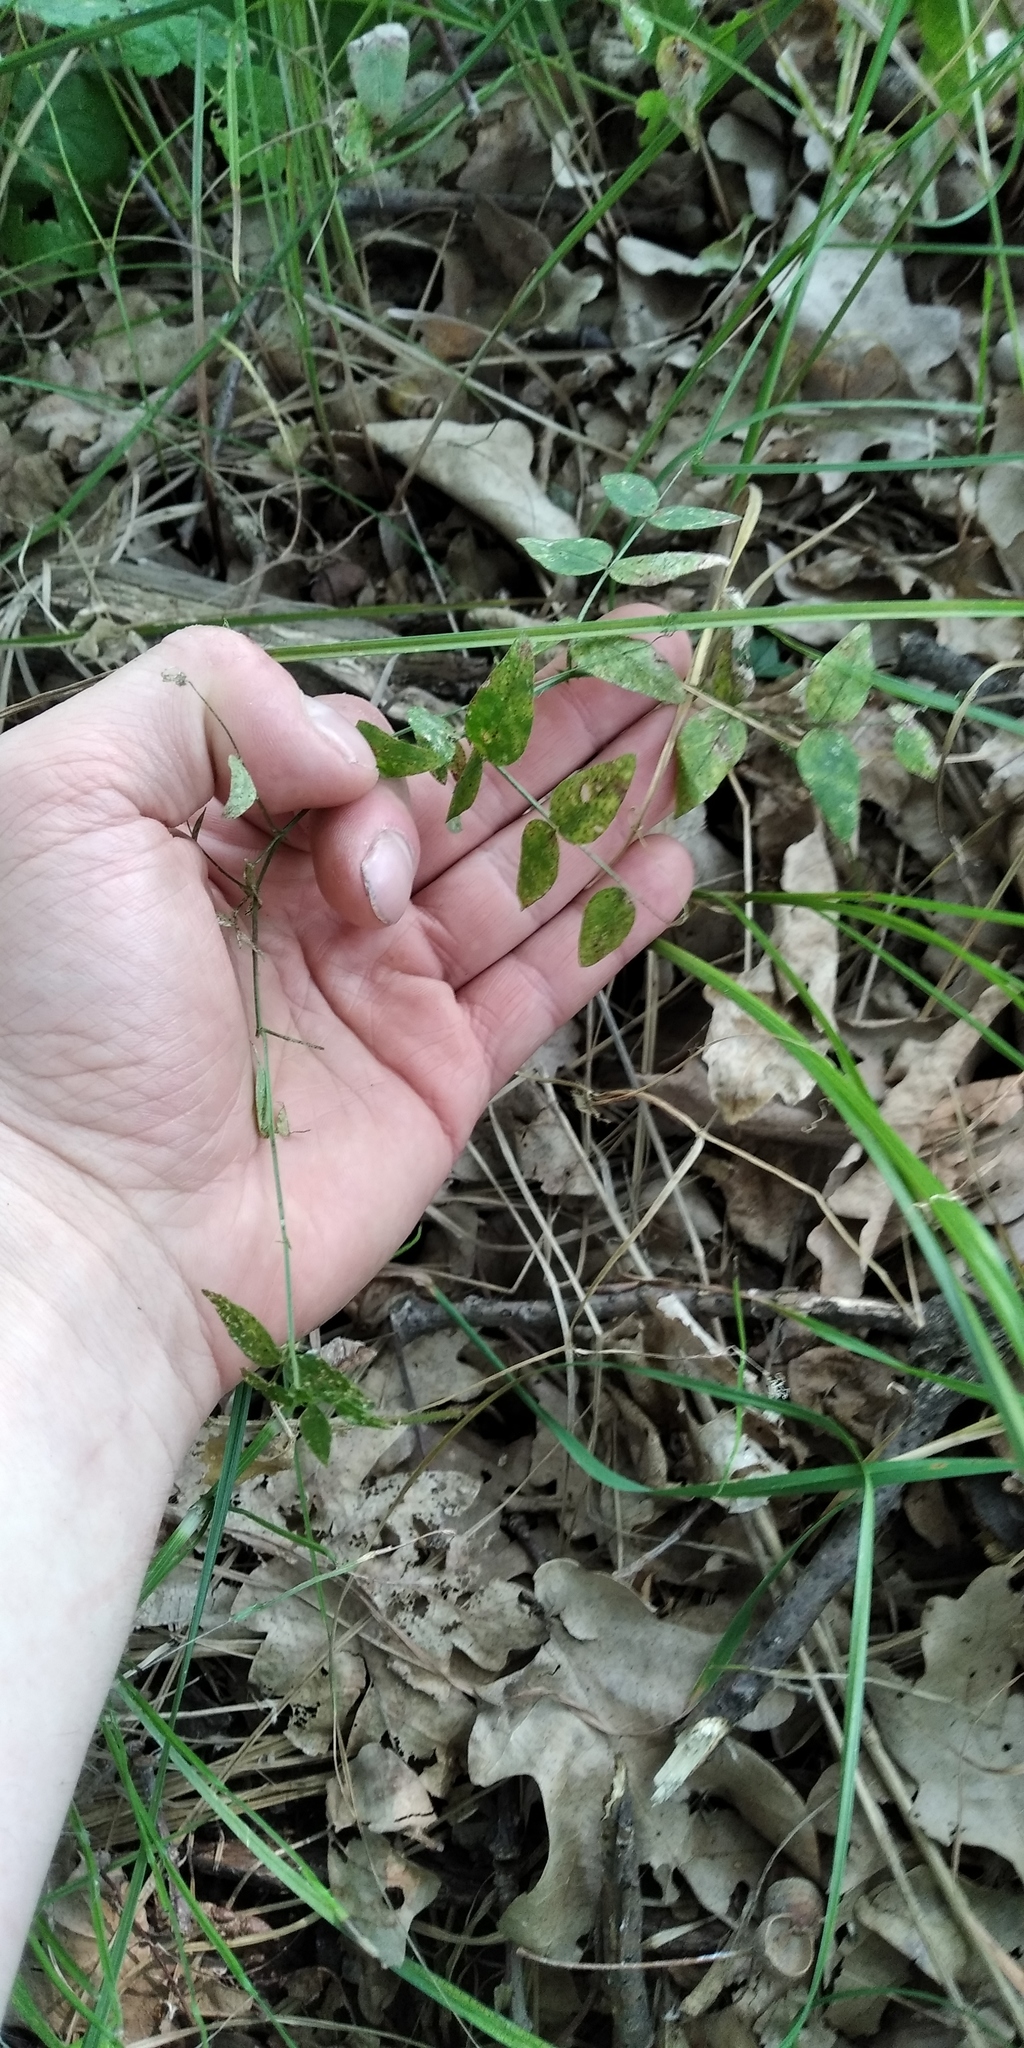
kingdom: Plantae
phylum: Tracheophyta
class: Magnoliopsida
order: Fabales
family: Fabaceae
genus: Vicia
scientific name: Vicia sativa
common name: Garden vetch
